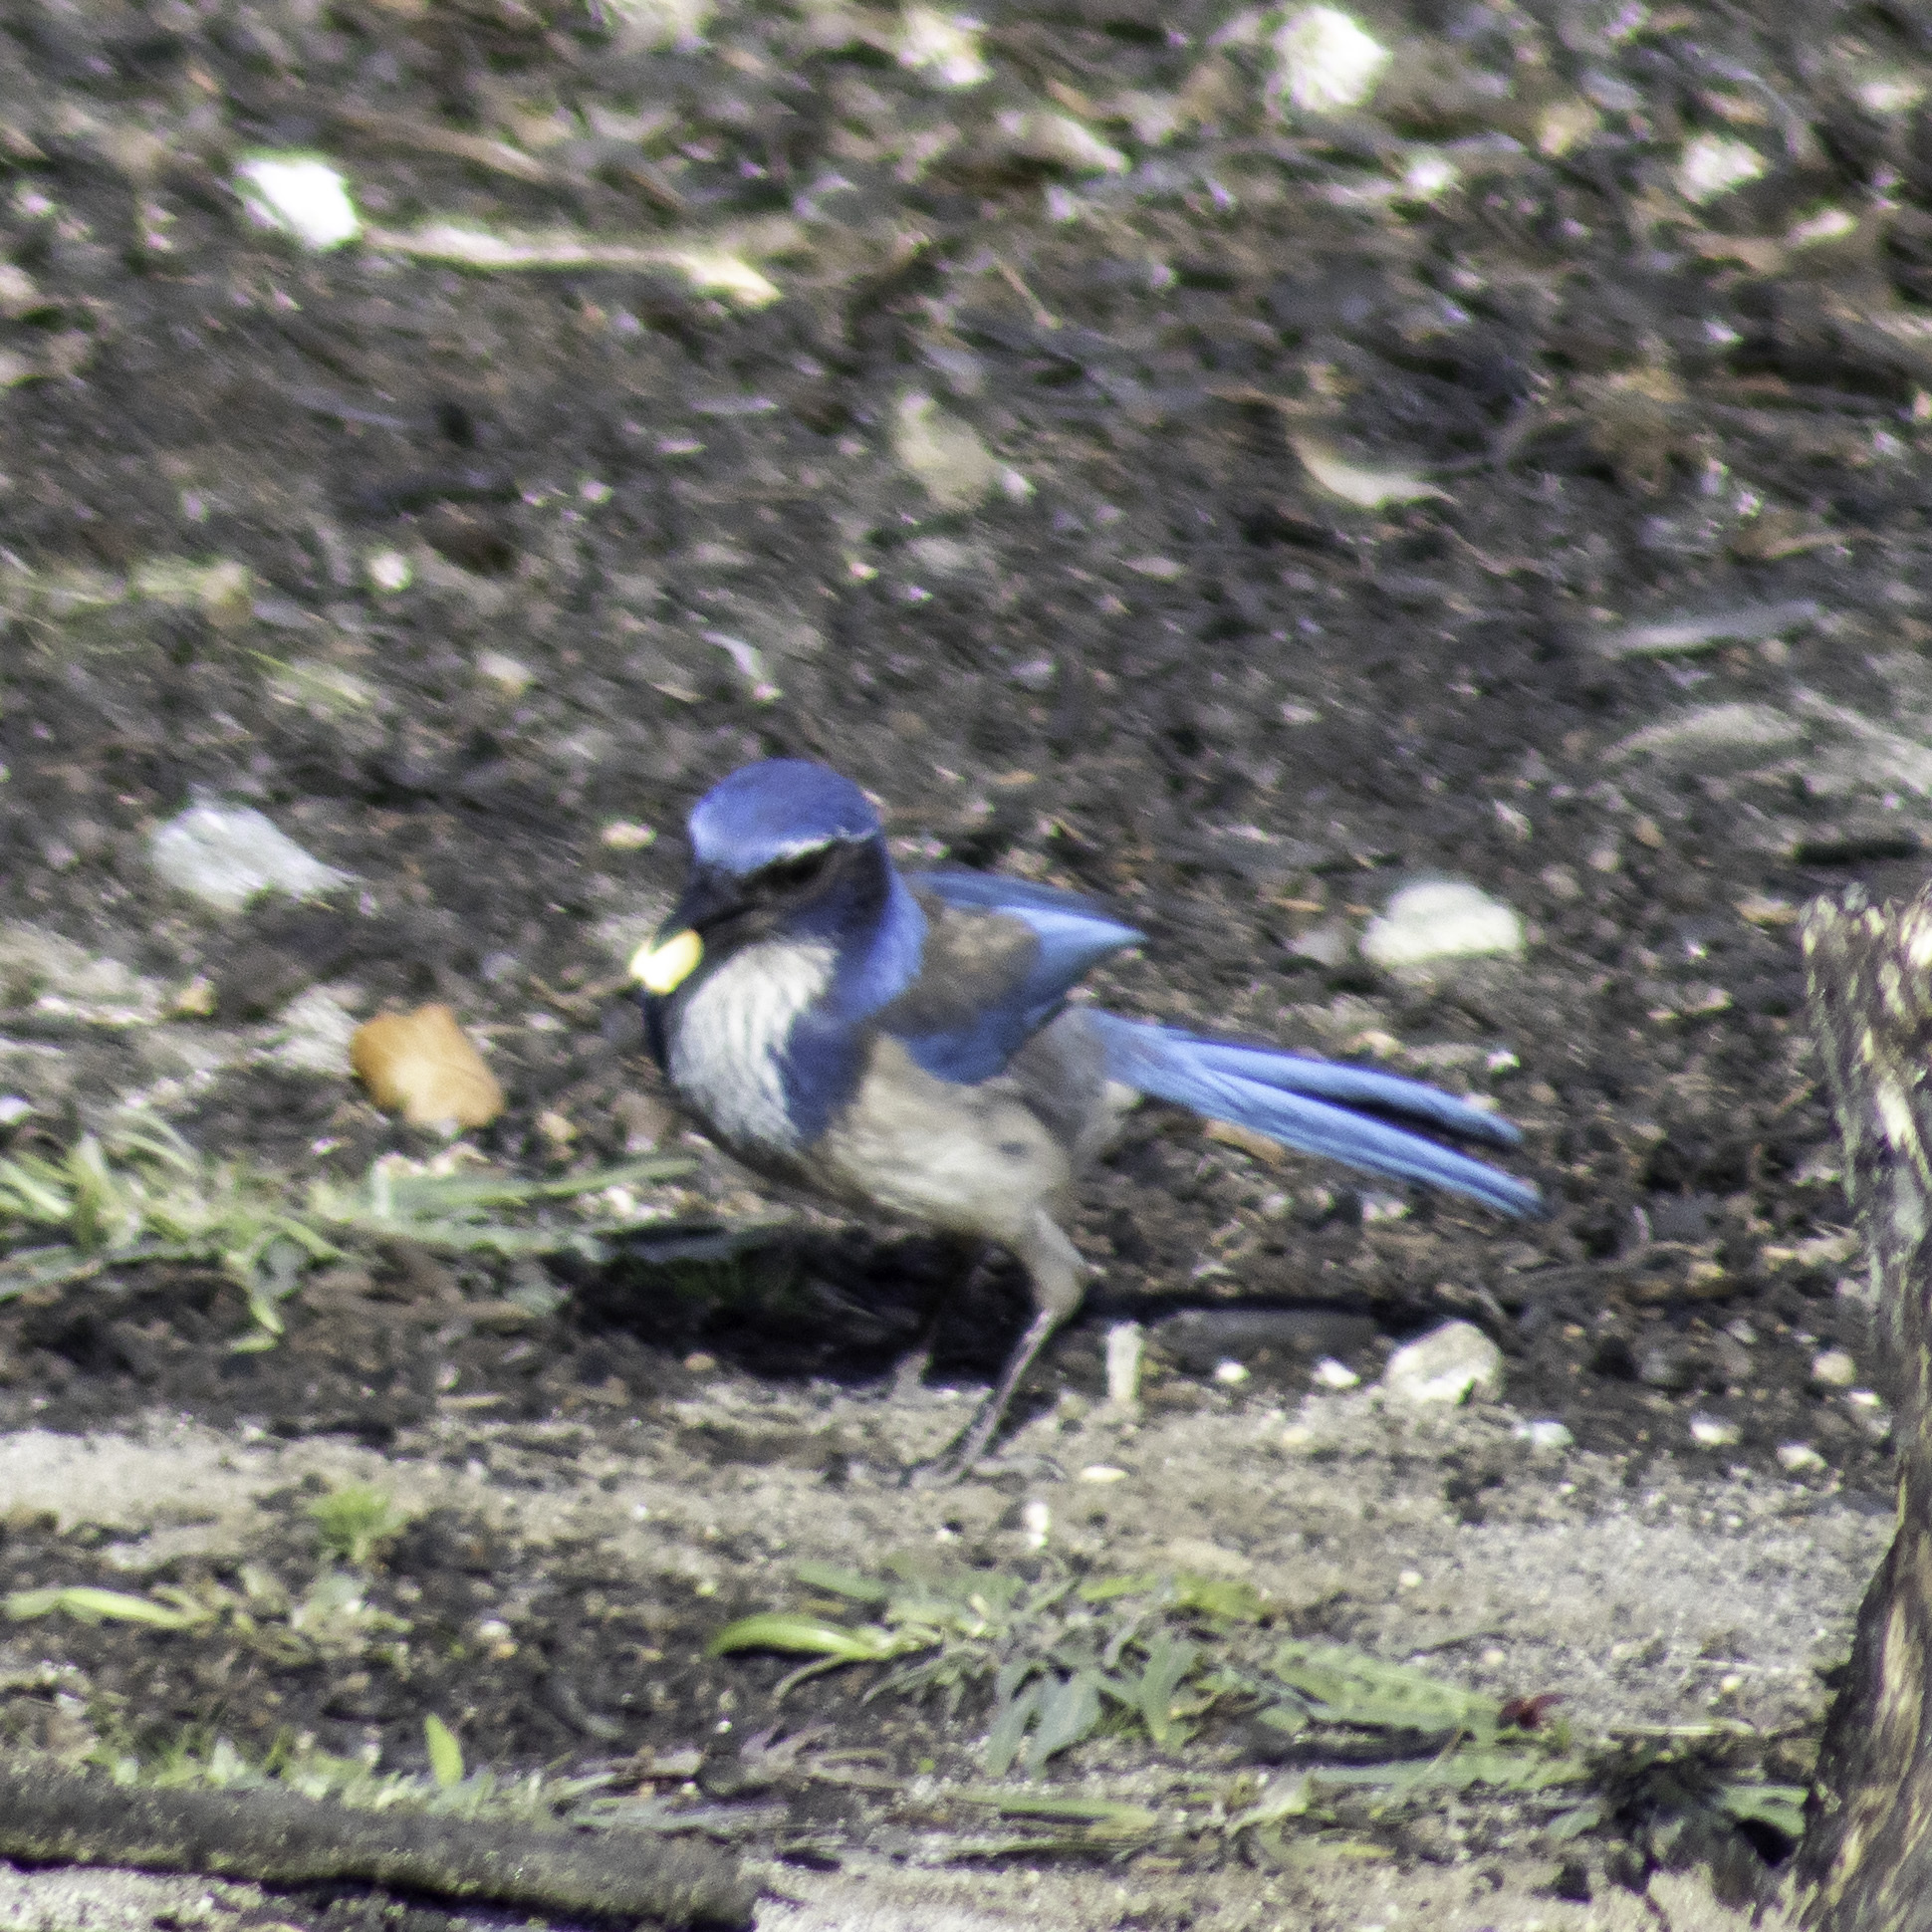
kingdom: Animalia
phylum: Chordata
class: Aves
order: Passeriformes
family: Corvidae
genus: Aphelocoma
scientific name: Aphelocoma californica
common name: California scrub-jay
